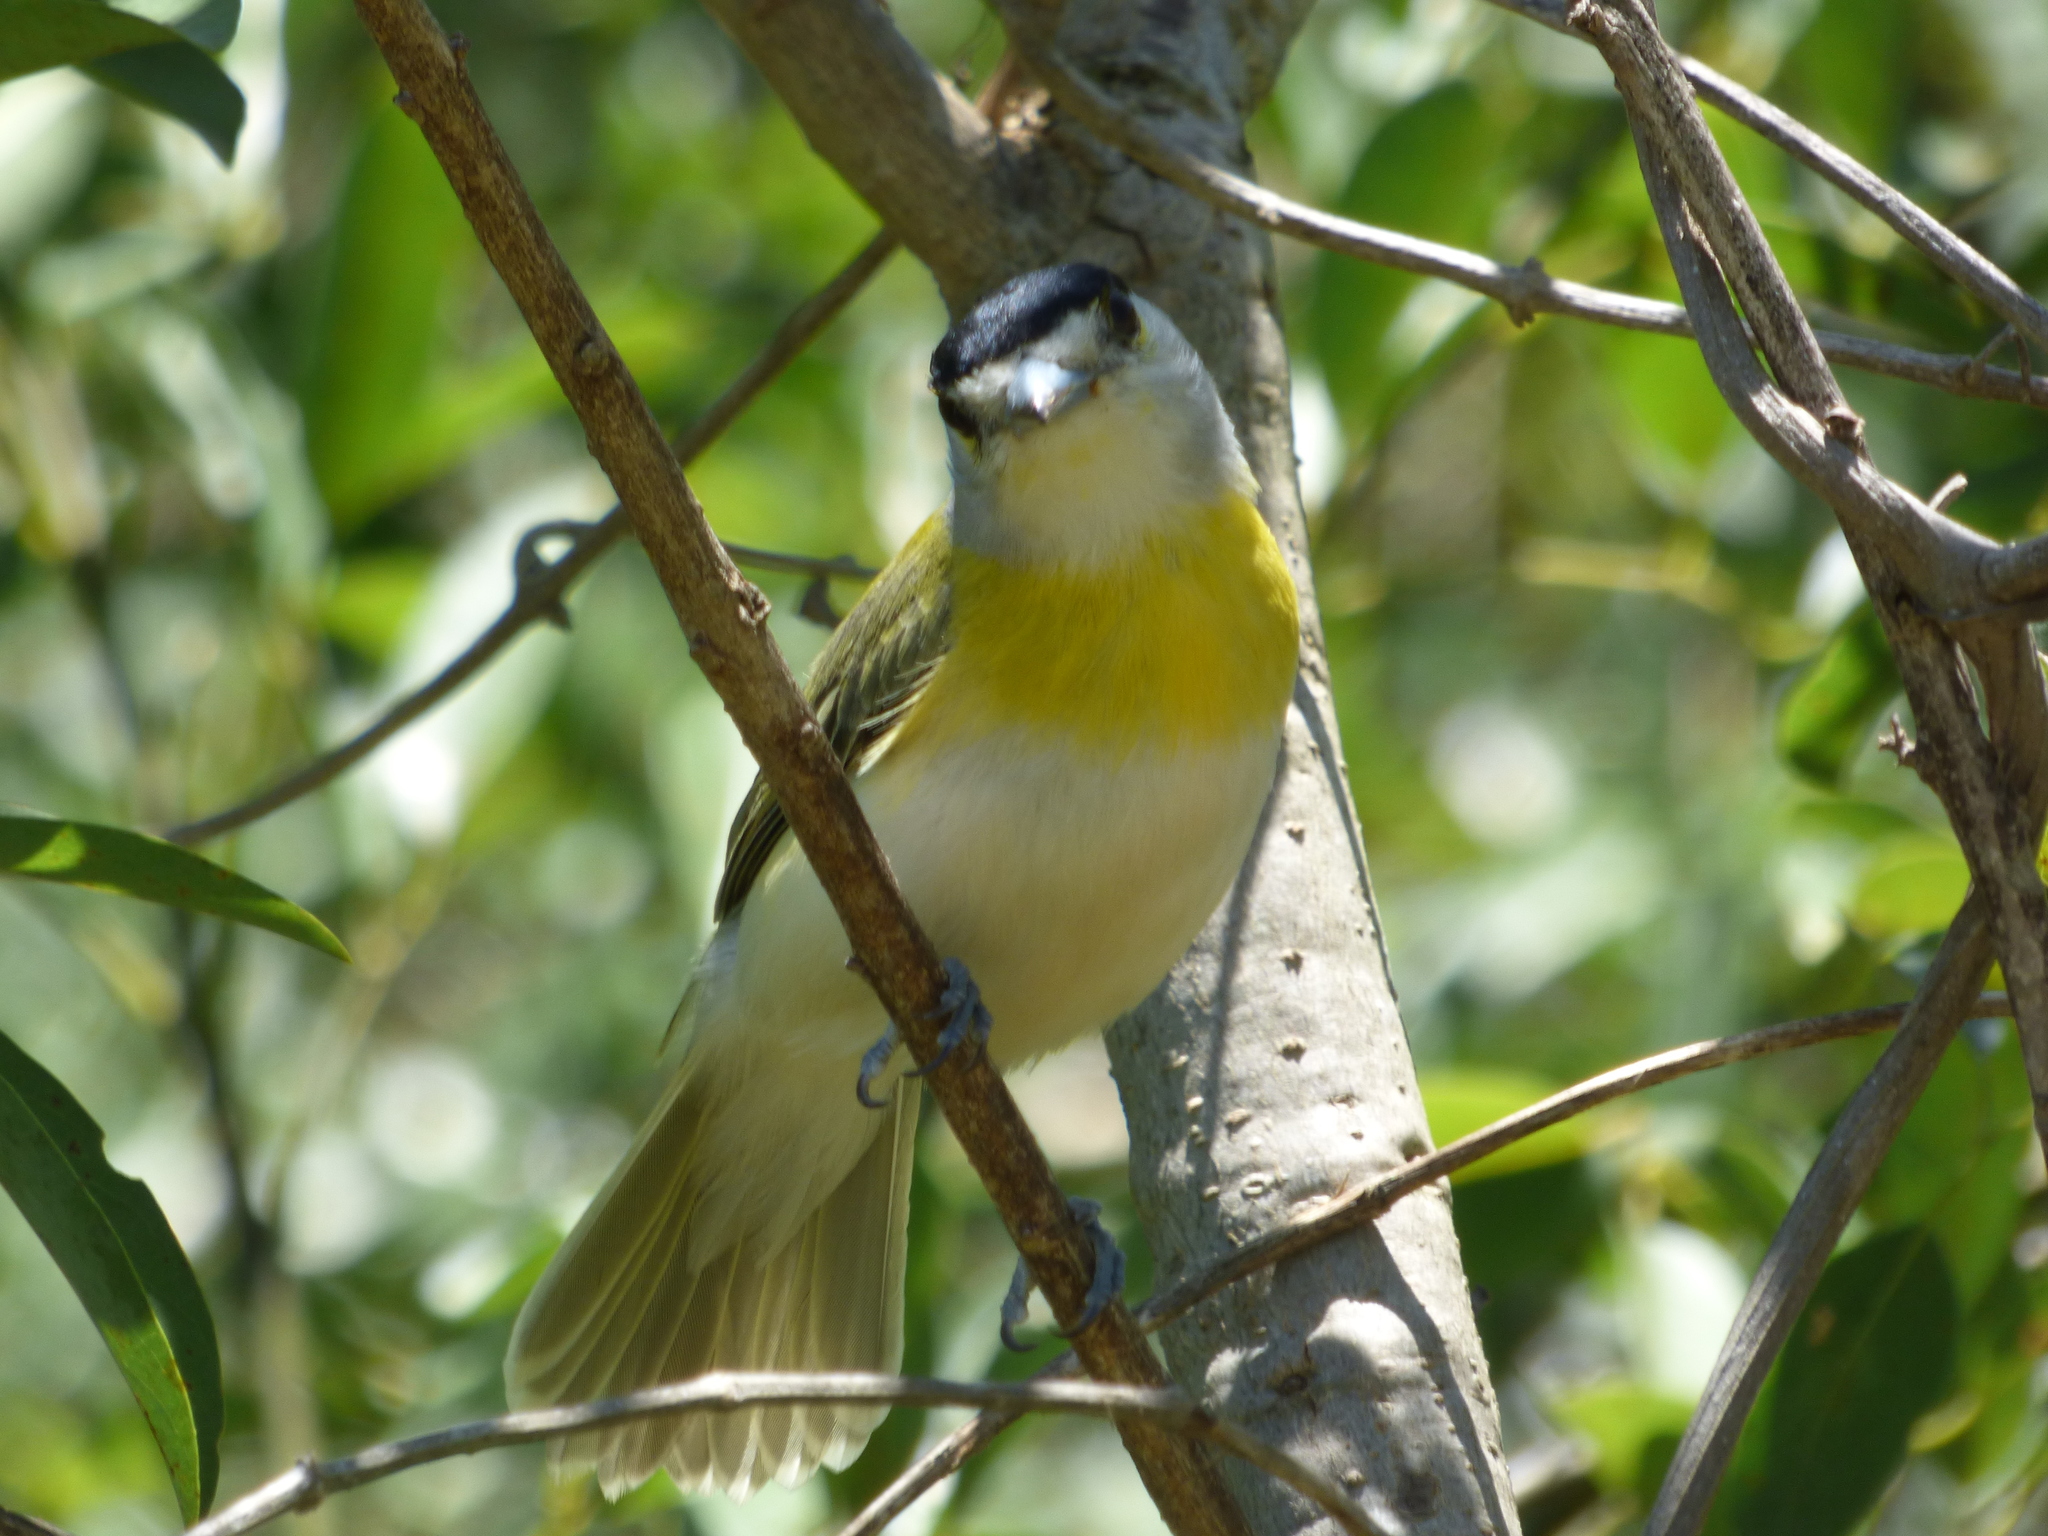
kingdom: Animalia
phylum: Chordata
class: Aves
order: Passeriformes
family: Cotingidae
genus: Pachyramphus
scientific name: Pachyramphus viridis
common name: Green-backed becard
